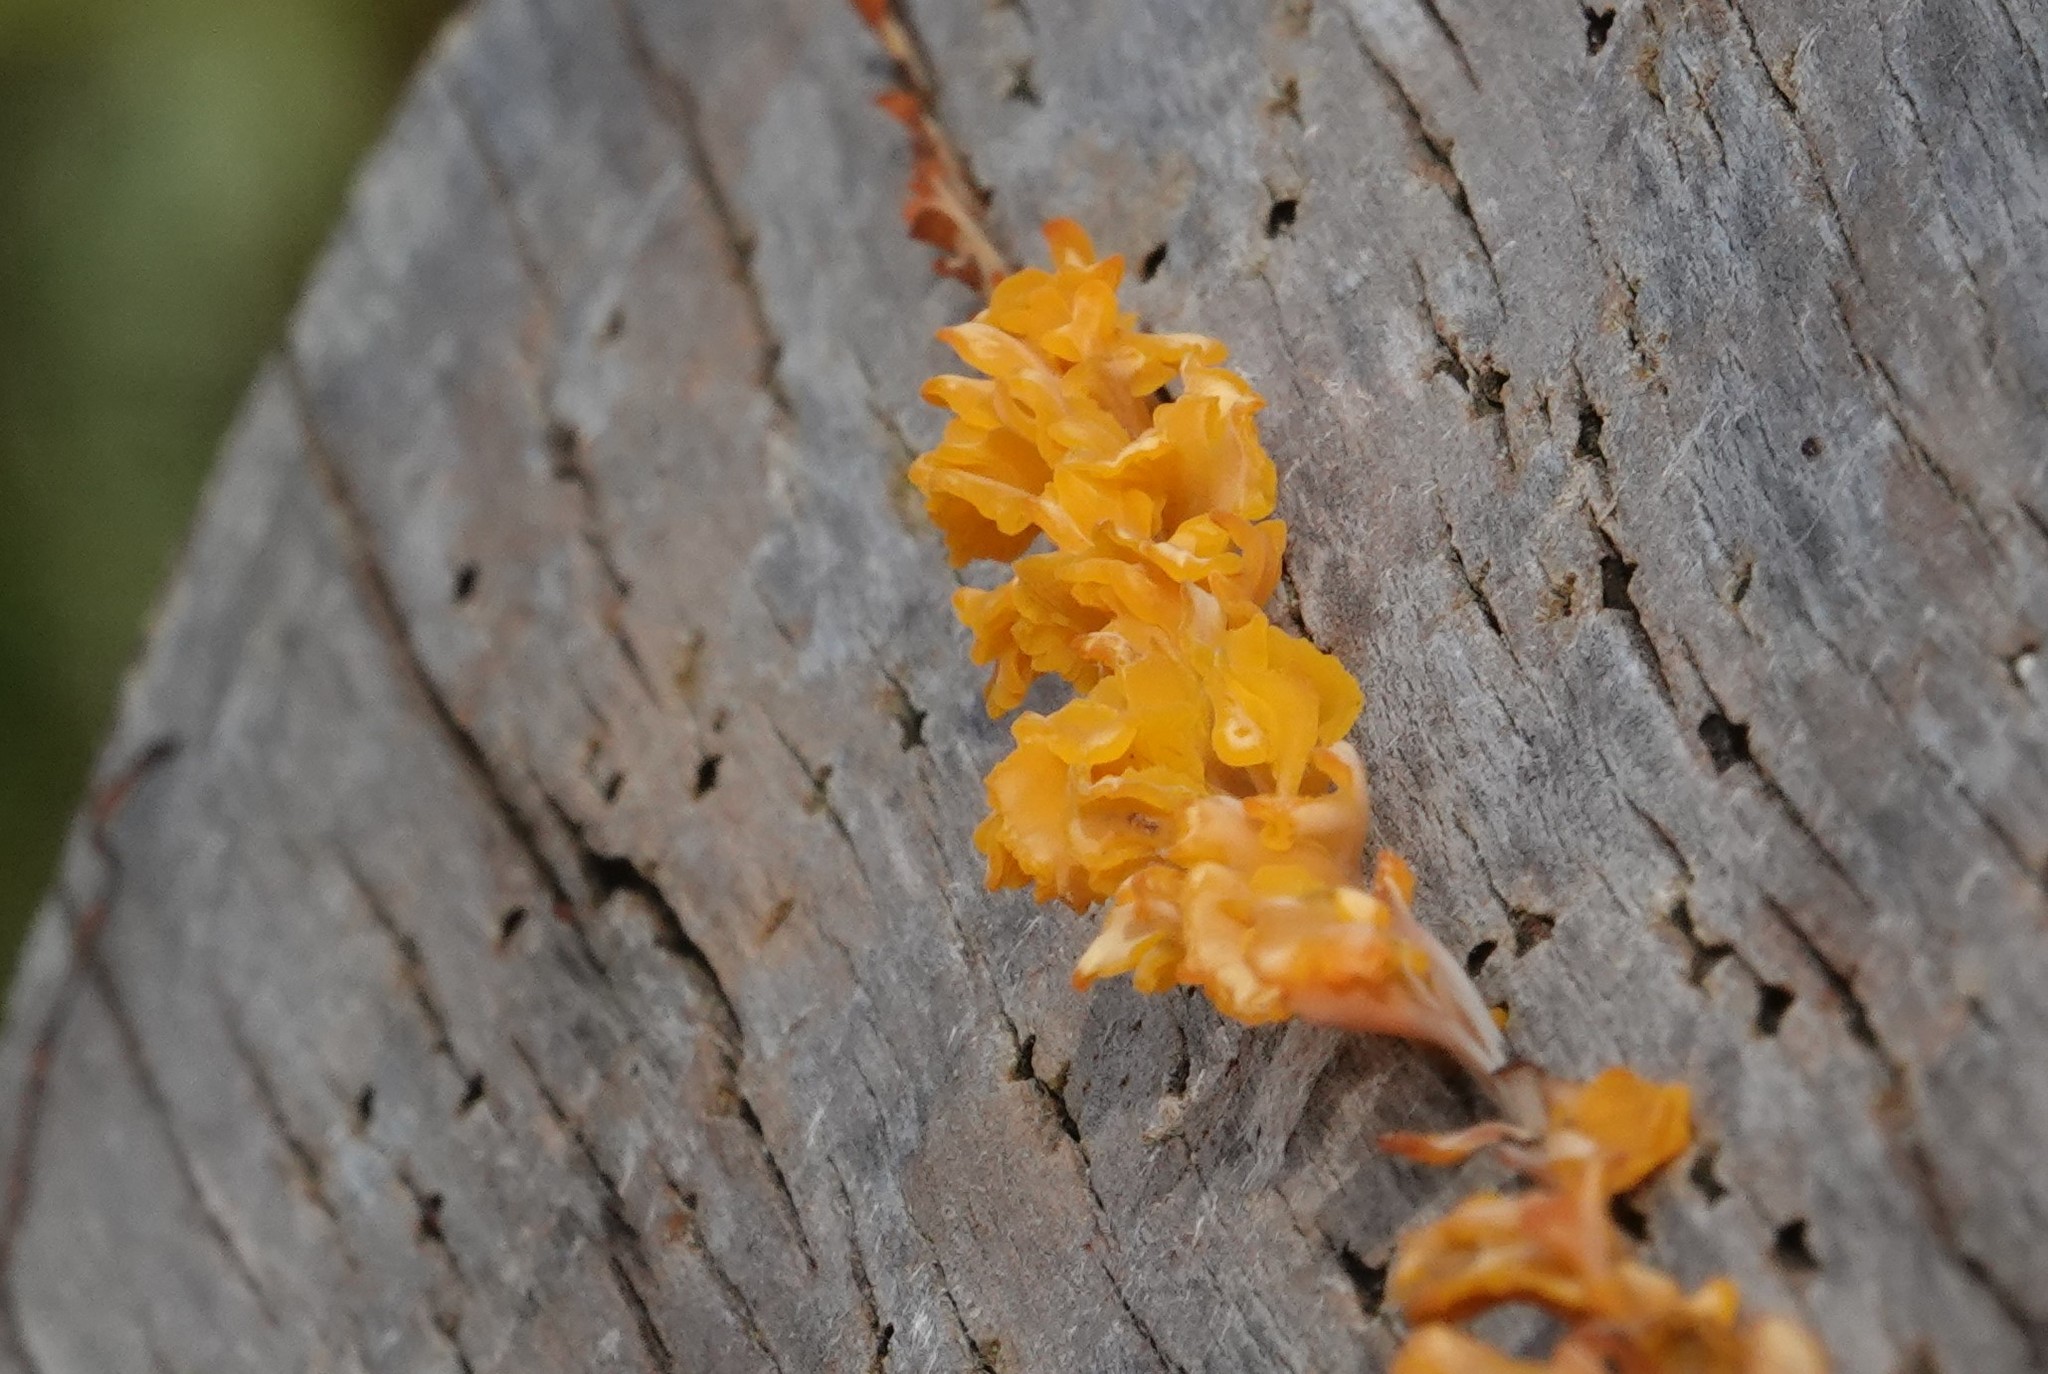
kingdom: Fungi
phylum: Basidiomycota
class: Dacrymycetes
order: Dacrymycetales
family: Dacrymycetaceae
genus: Dacrymyces
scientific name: Dacrymyces spathularius
